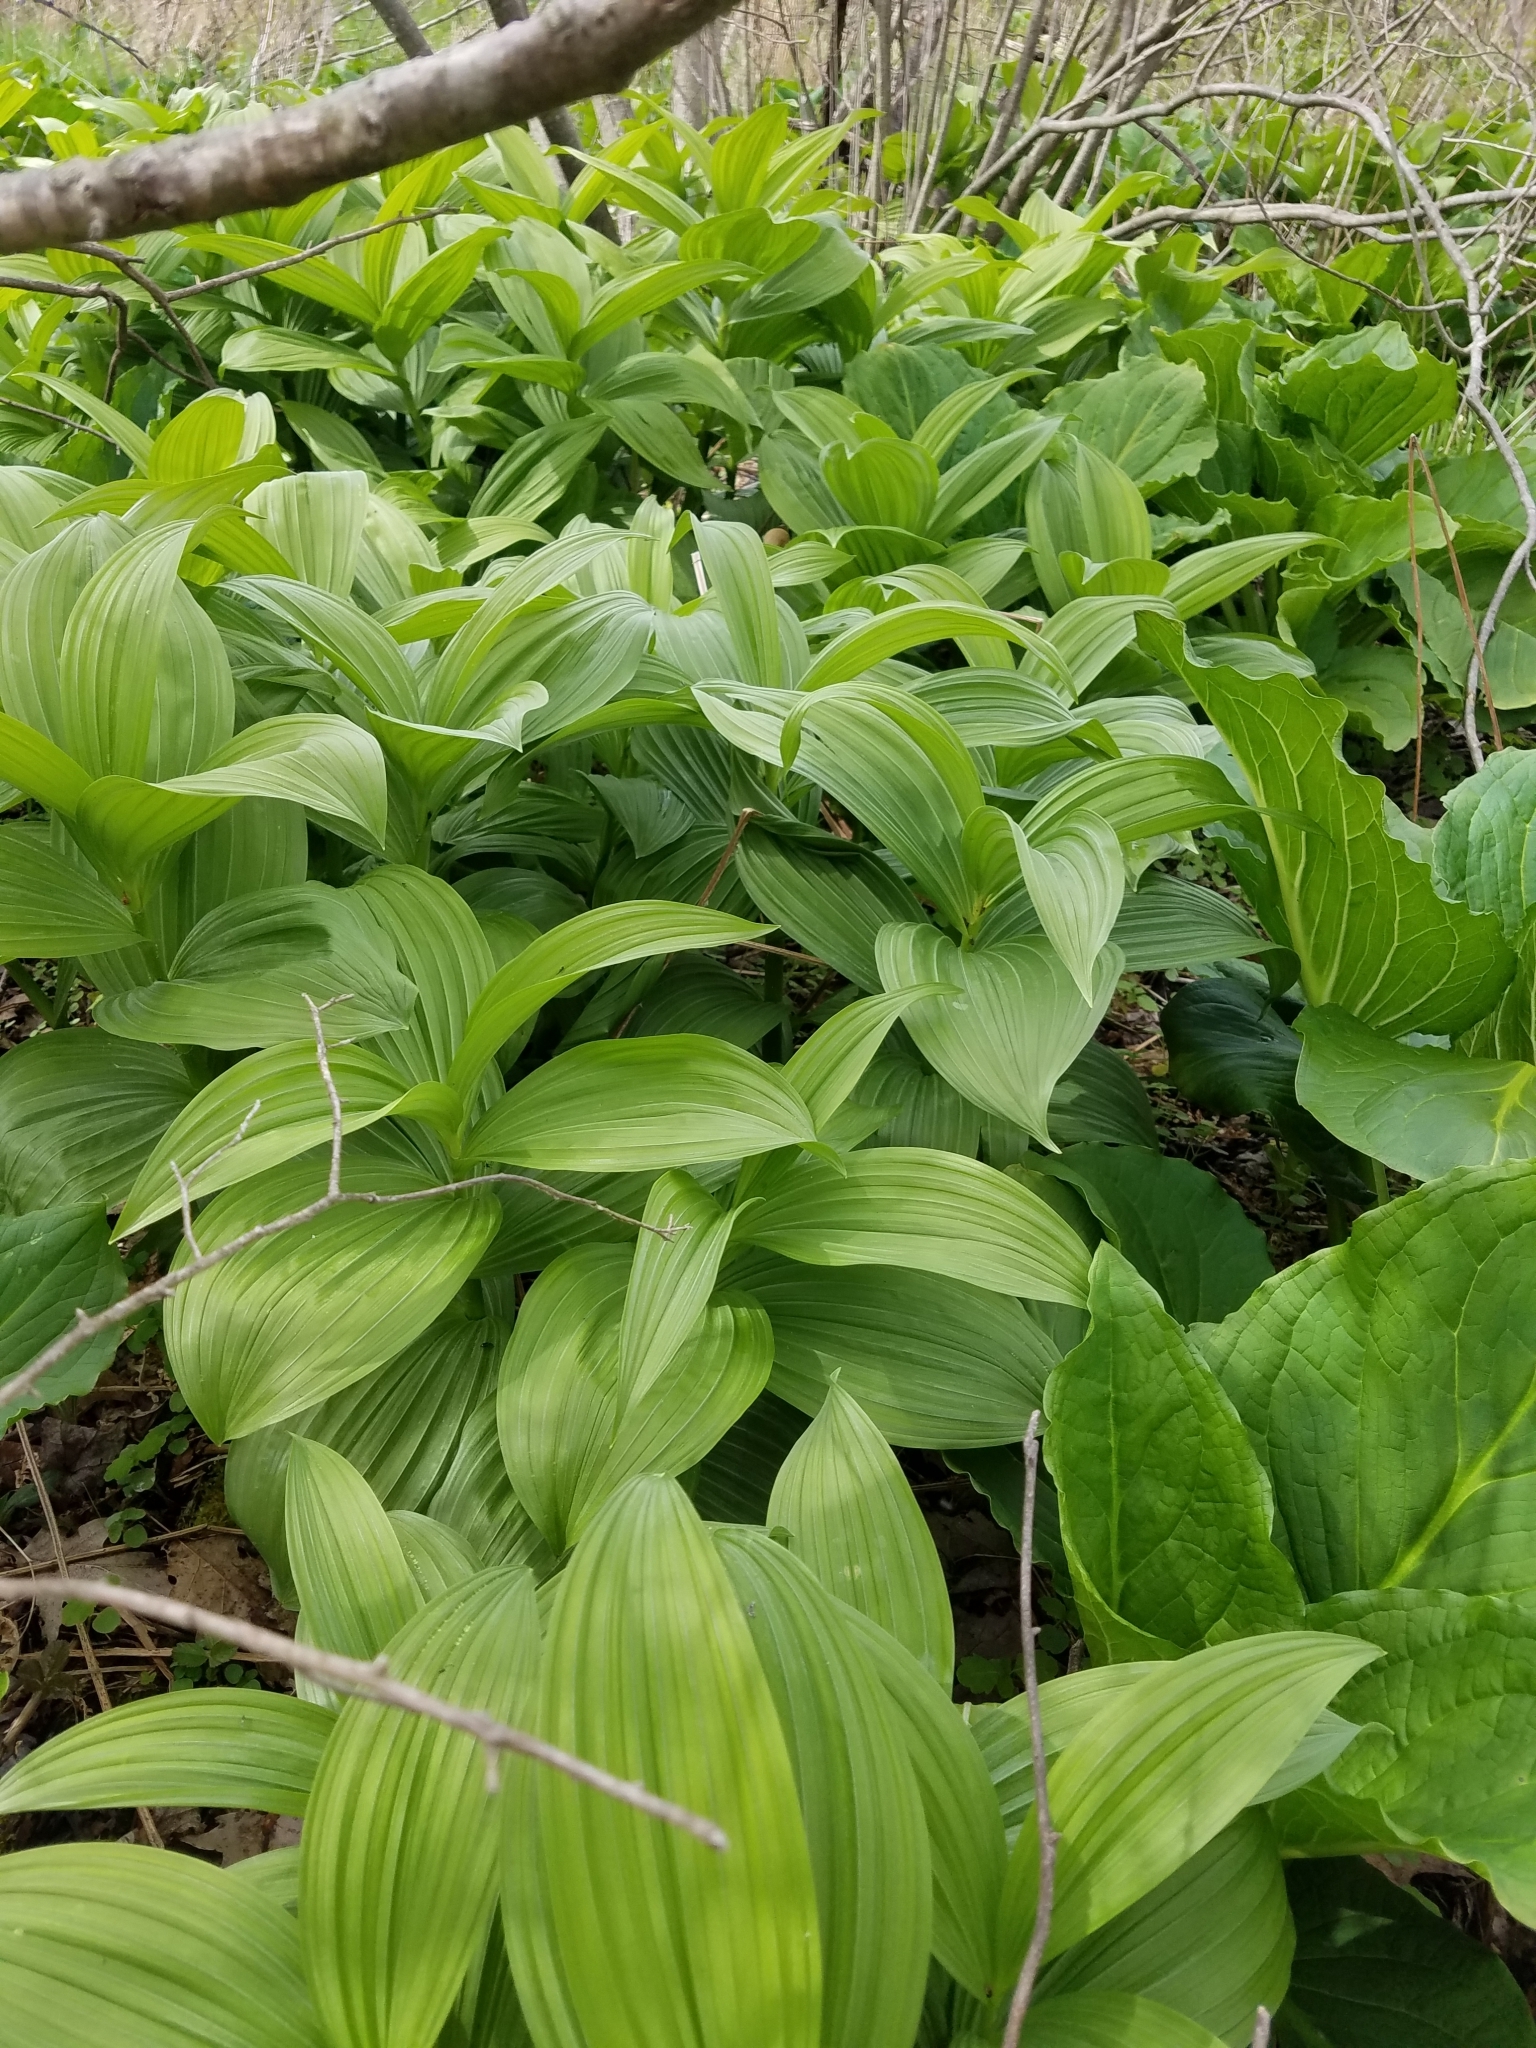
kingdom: Plantae
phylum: Tracheophyta
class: Liliopsida
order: Liliales
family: Melanthiaceae
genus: Veratrum
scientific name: Veratrum viride
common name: American false hellebore
